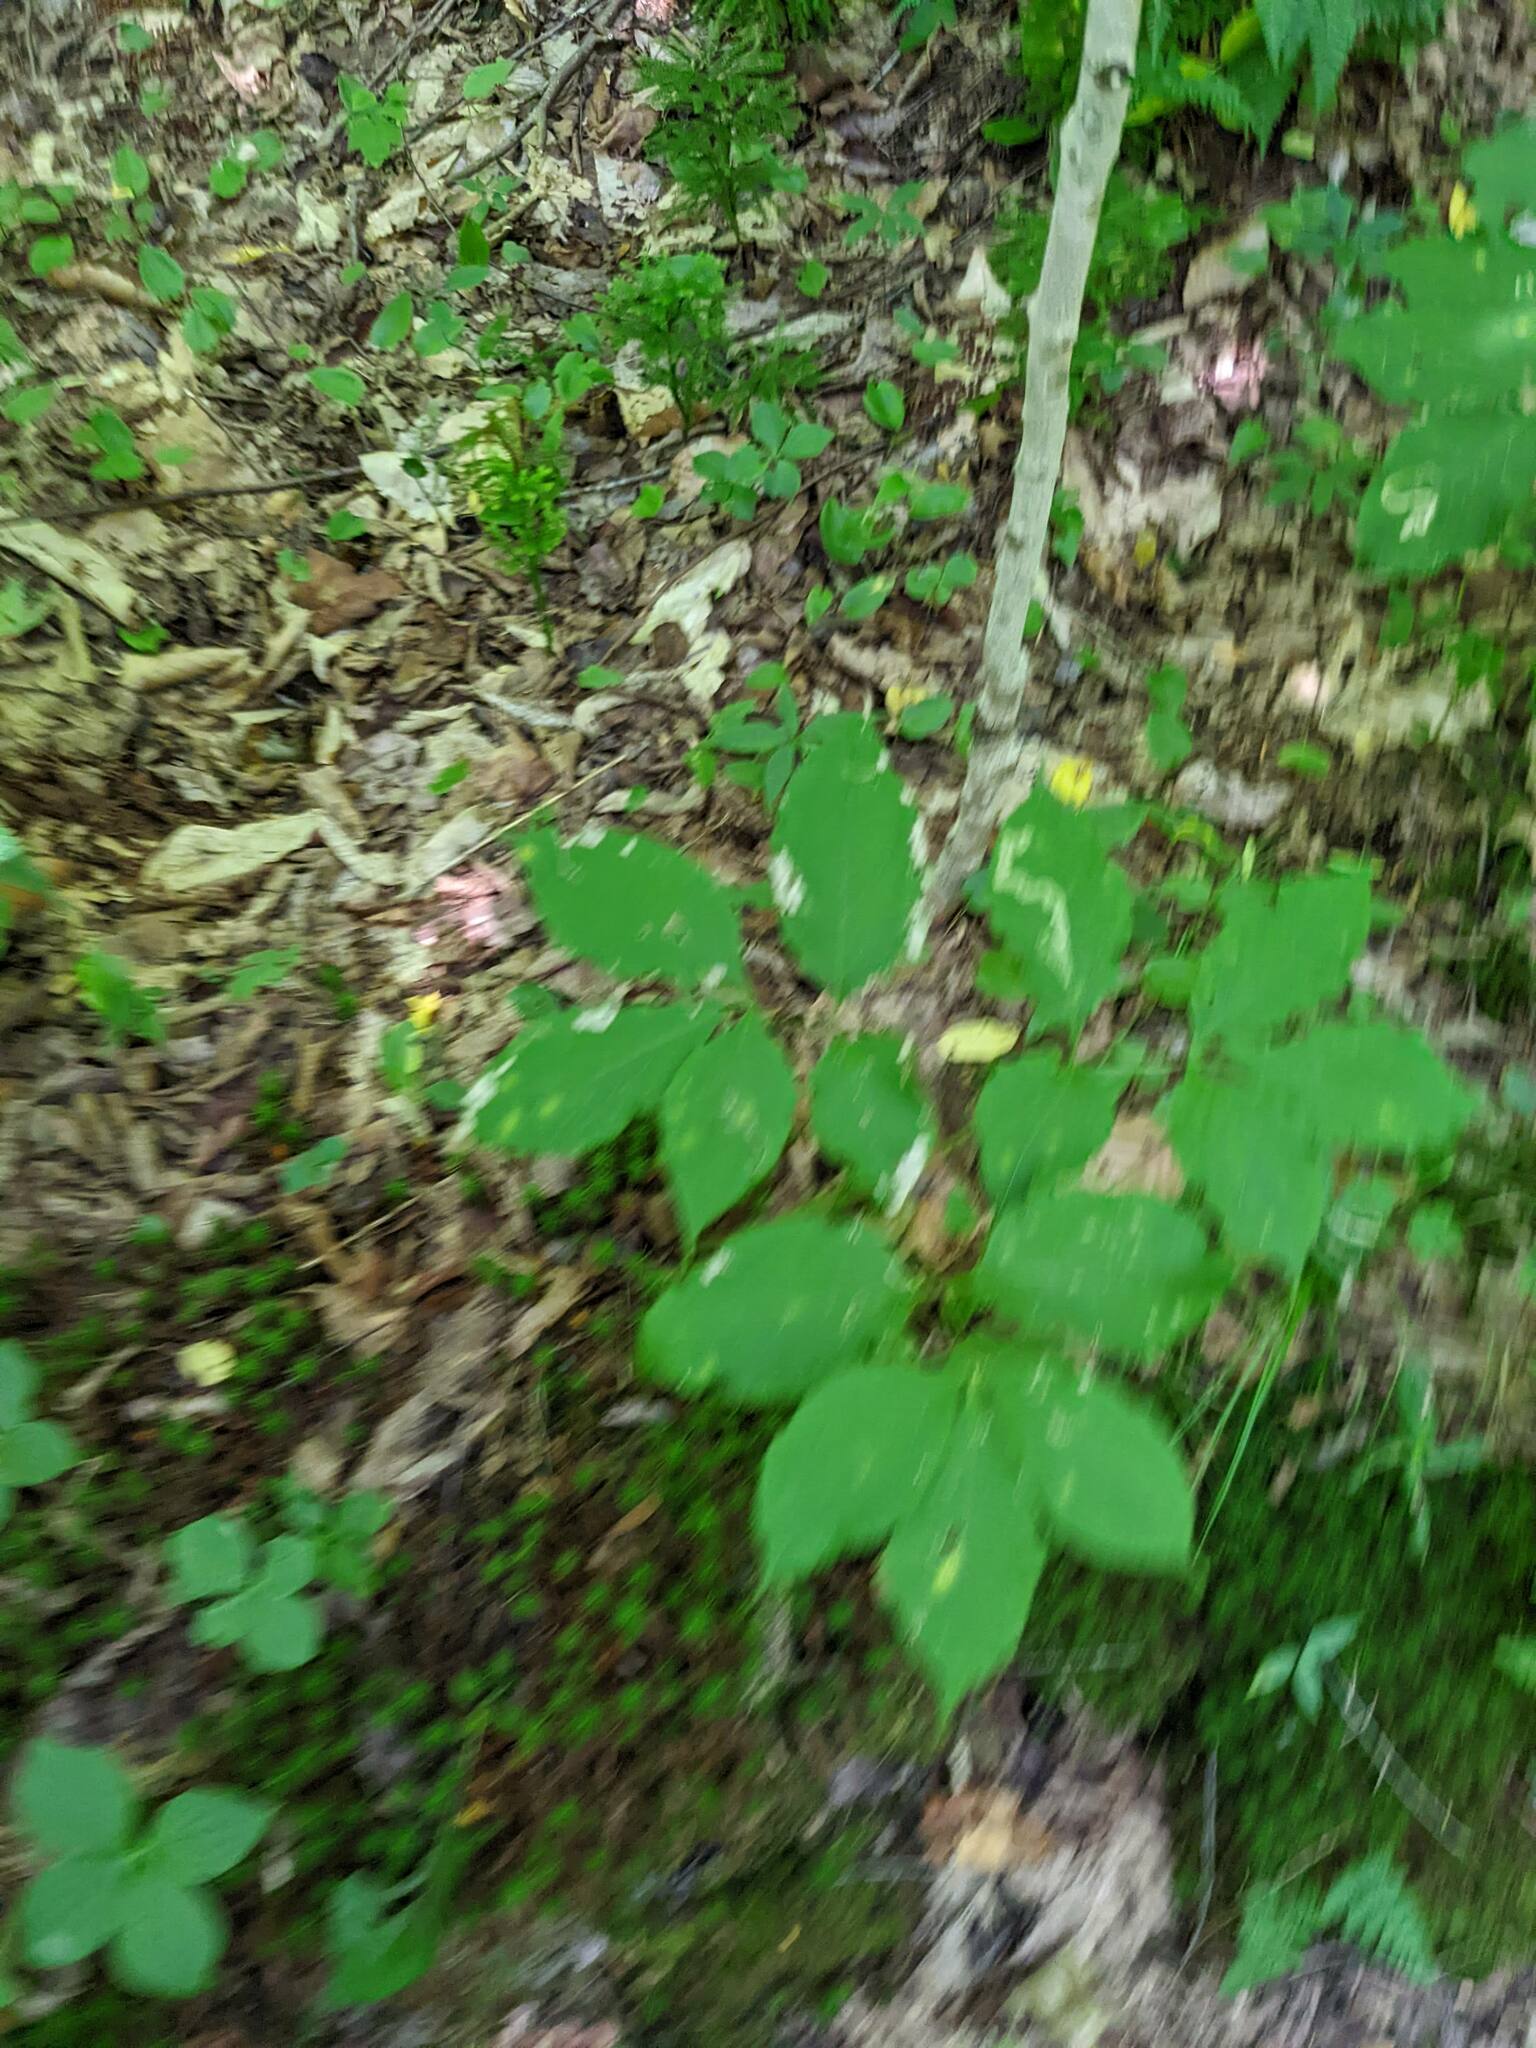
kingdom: Plantae
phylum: Tracheophyta
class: Magnoliopsida
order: Apiales
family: Araliaceae
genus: Aralia
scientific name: Aralia nudicaulis
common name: Wild sarsaparilla
